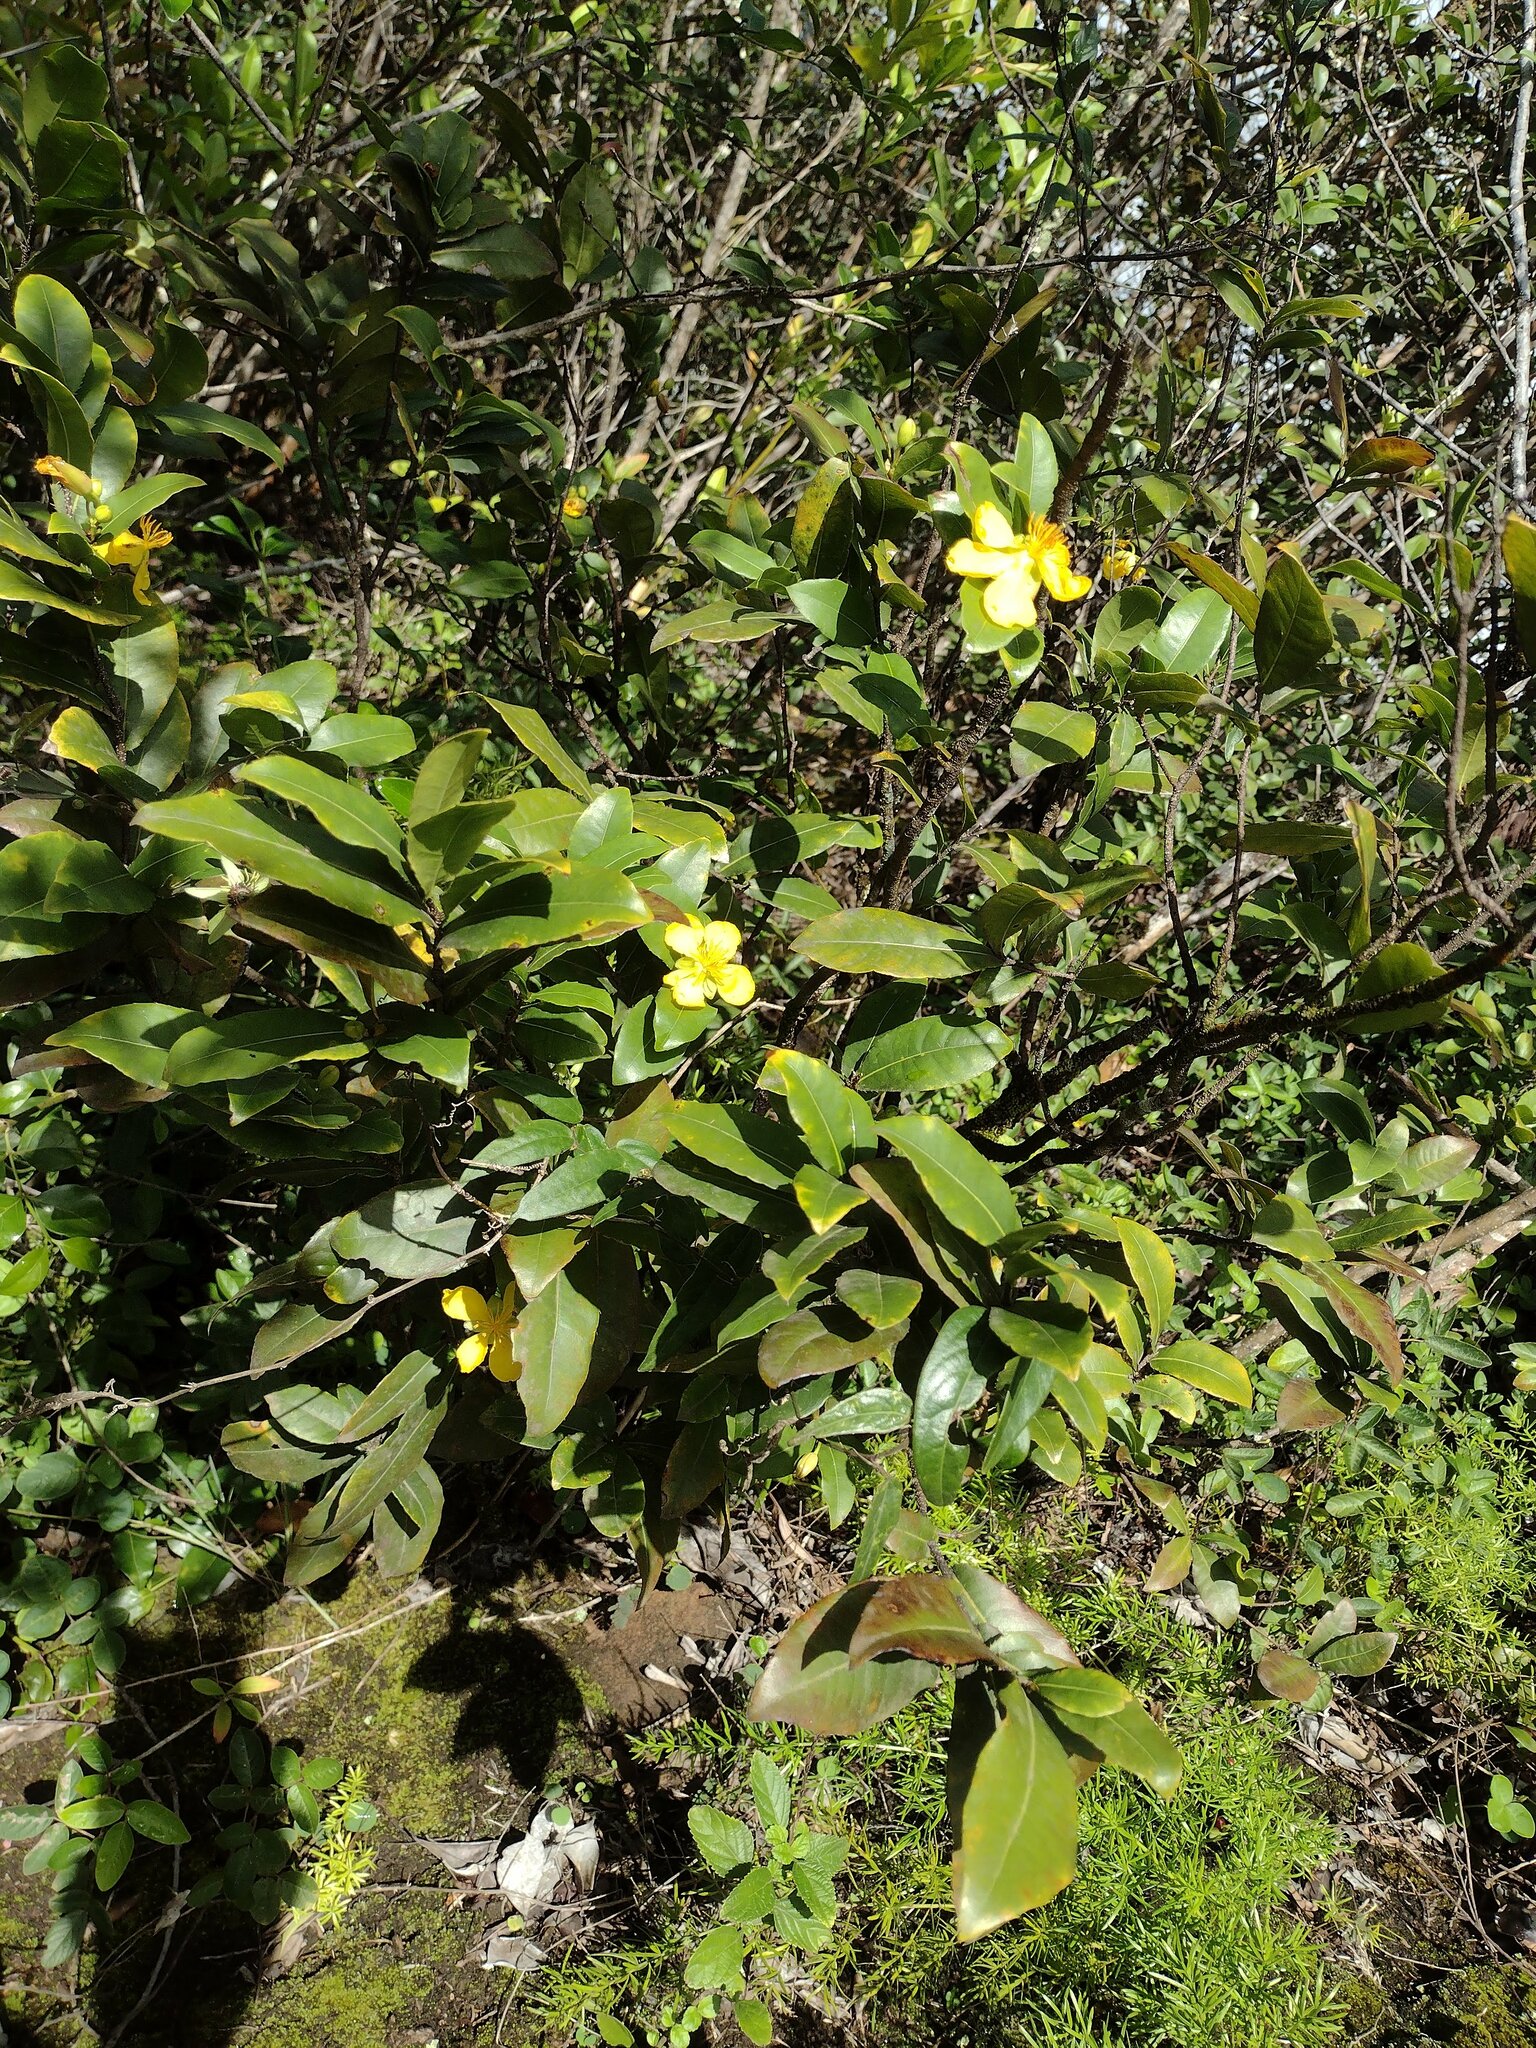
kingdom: Plantae
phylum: Tracheophyta
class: Magnoliopsida
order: Malpighiales
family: Ochnaceae
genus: Ochna
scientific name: Ochna thomasiana
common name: Thomas' bird's-eye bush
